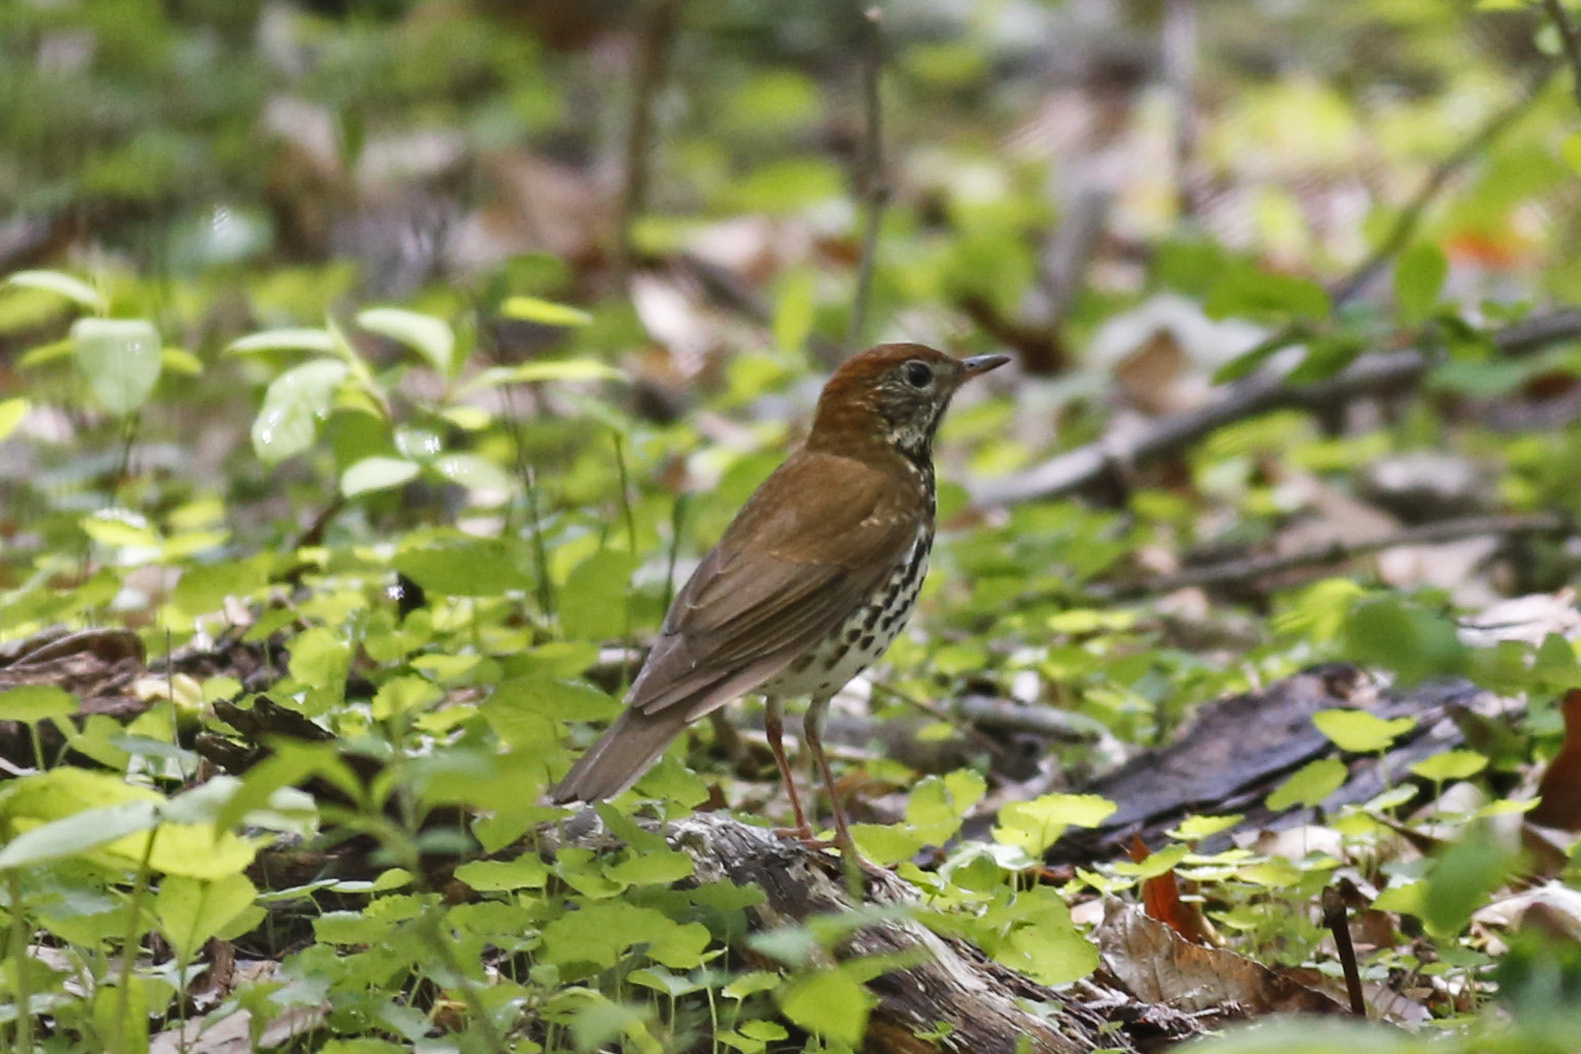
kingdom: Animalia
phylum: Chordata
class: Aves
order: Passeriformes
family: Turdidae
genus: Hylocichla
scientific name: Hylocichla mustelina
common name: Wood thrush
